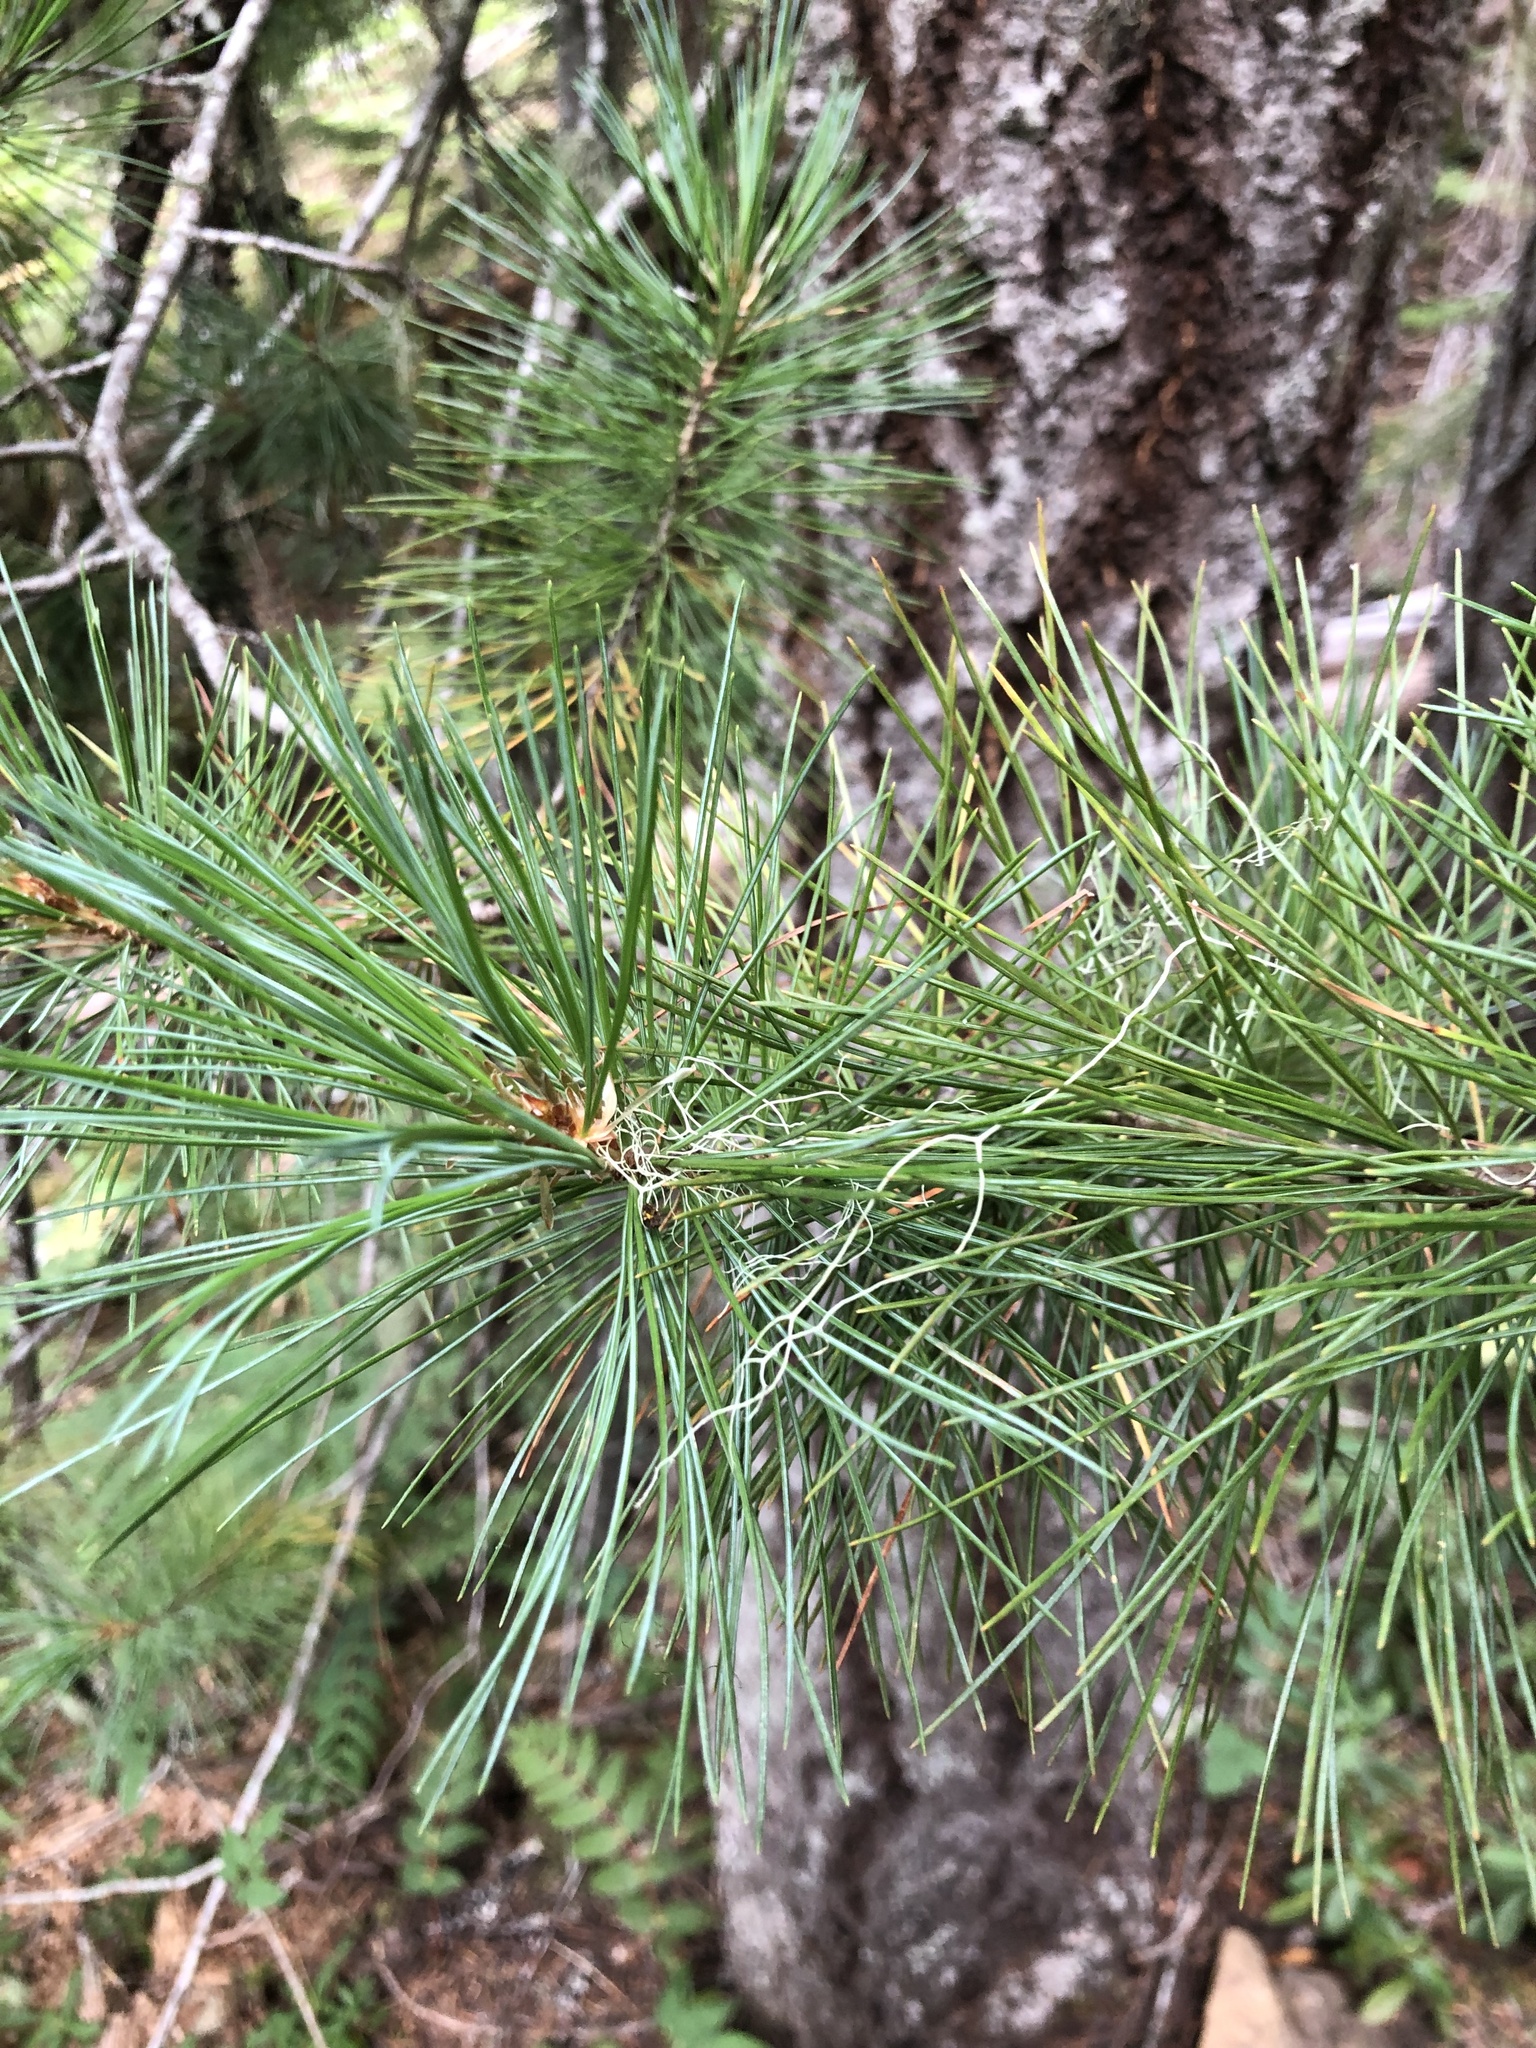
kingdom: Plantae
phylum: Tracheophyta
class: Pinopsida
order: Pinales
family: Pinaceae
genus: Pinus
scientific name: Pinus monticola
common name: Western white pine
